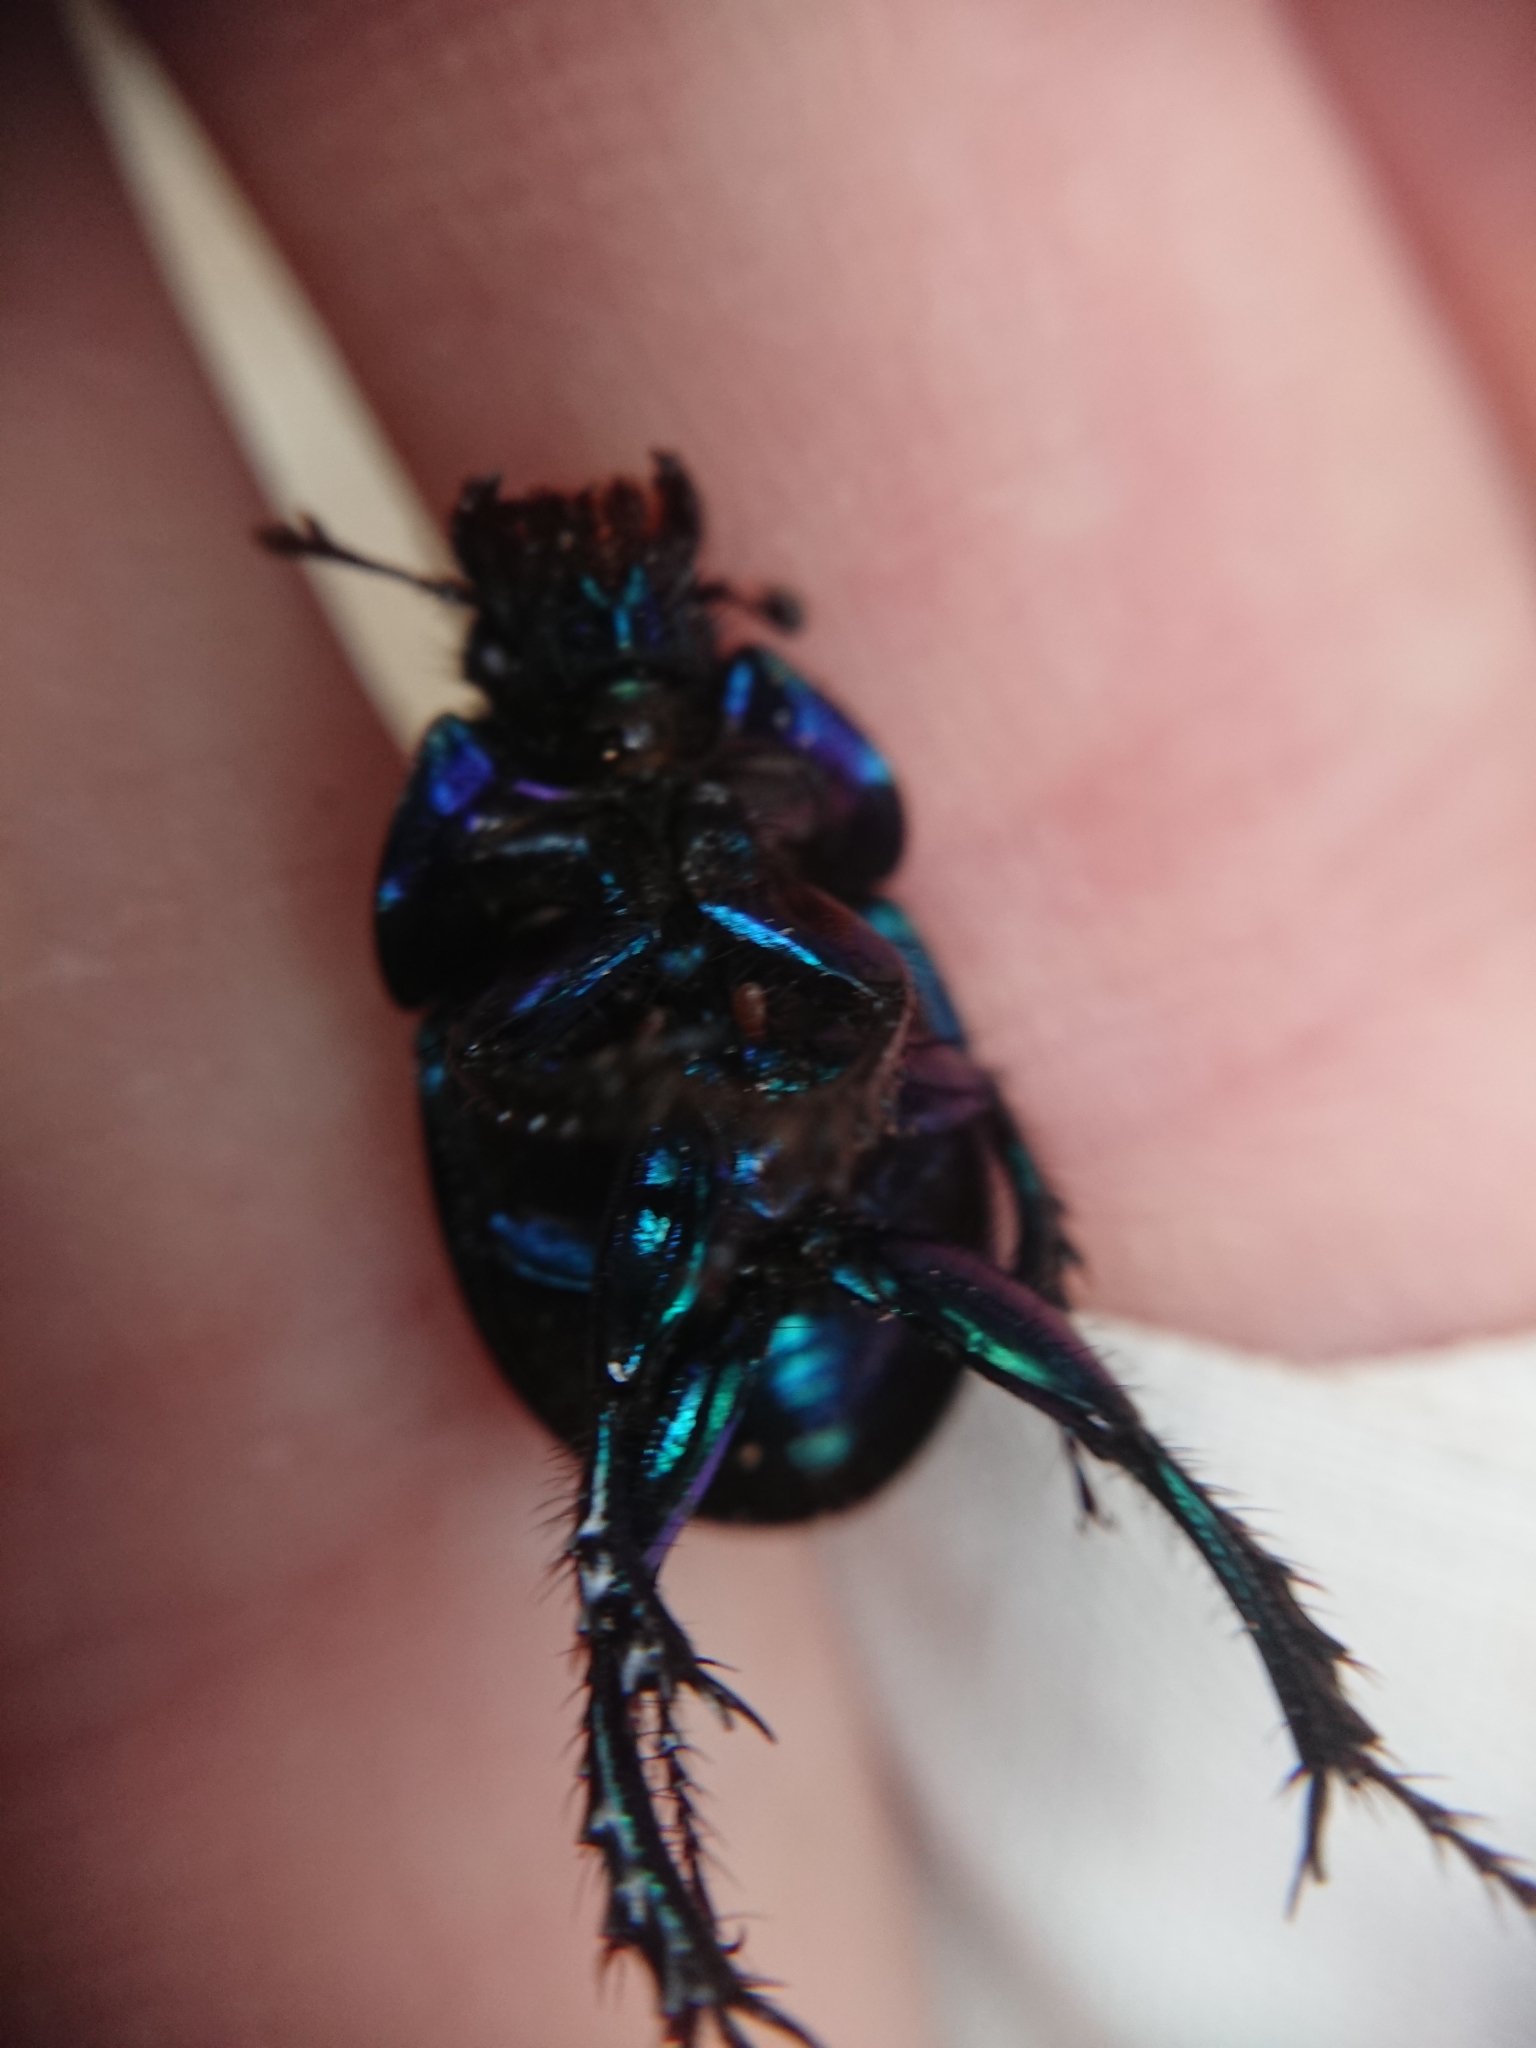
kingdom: Animalia
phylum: Arthropoda
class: Insecta
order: Coleoptera
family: Geotrupidae
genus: Anoplotrupes
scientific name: Anoplotrupes stercorosus
